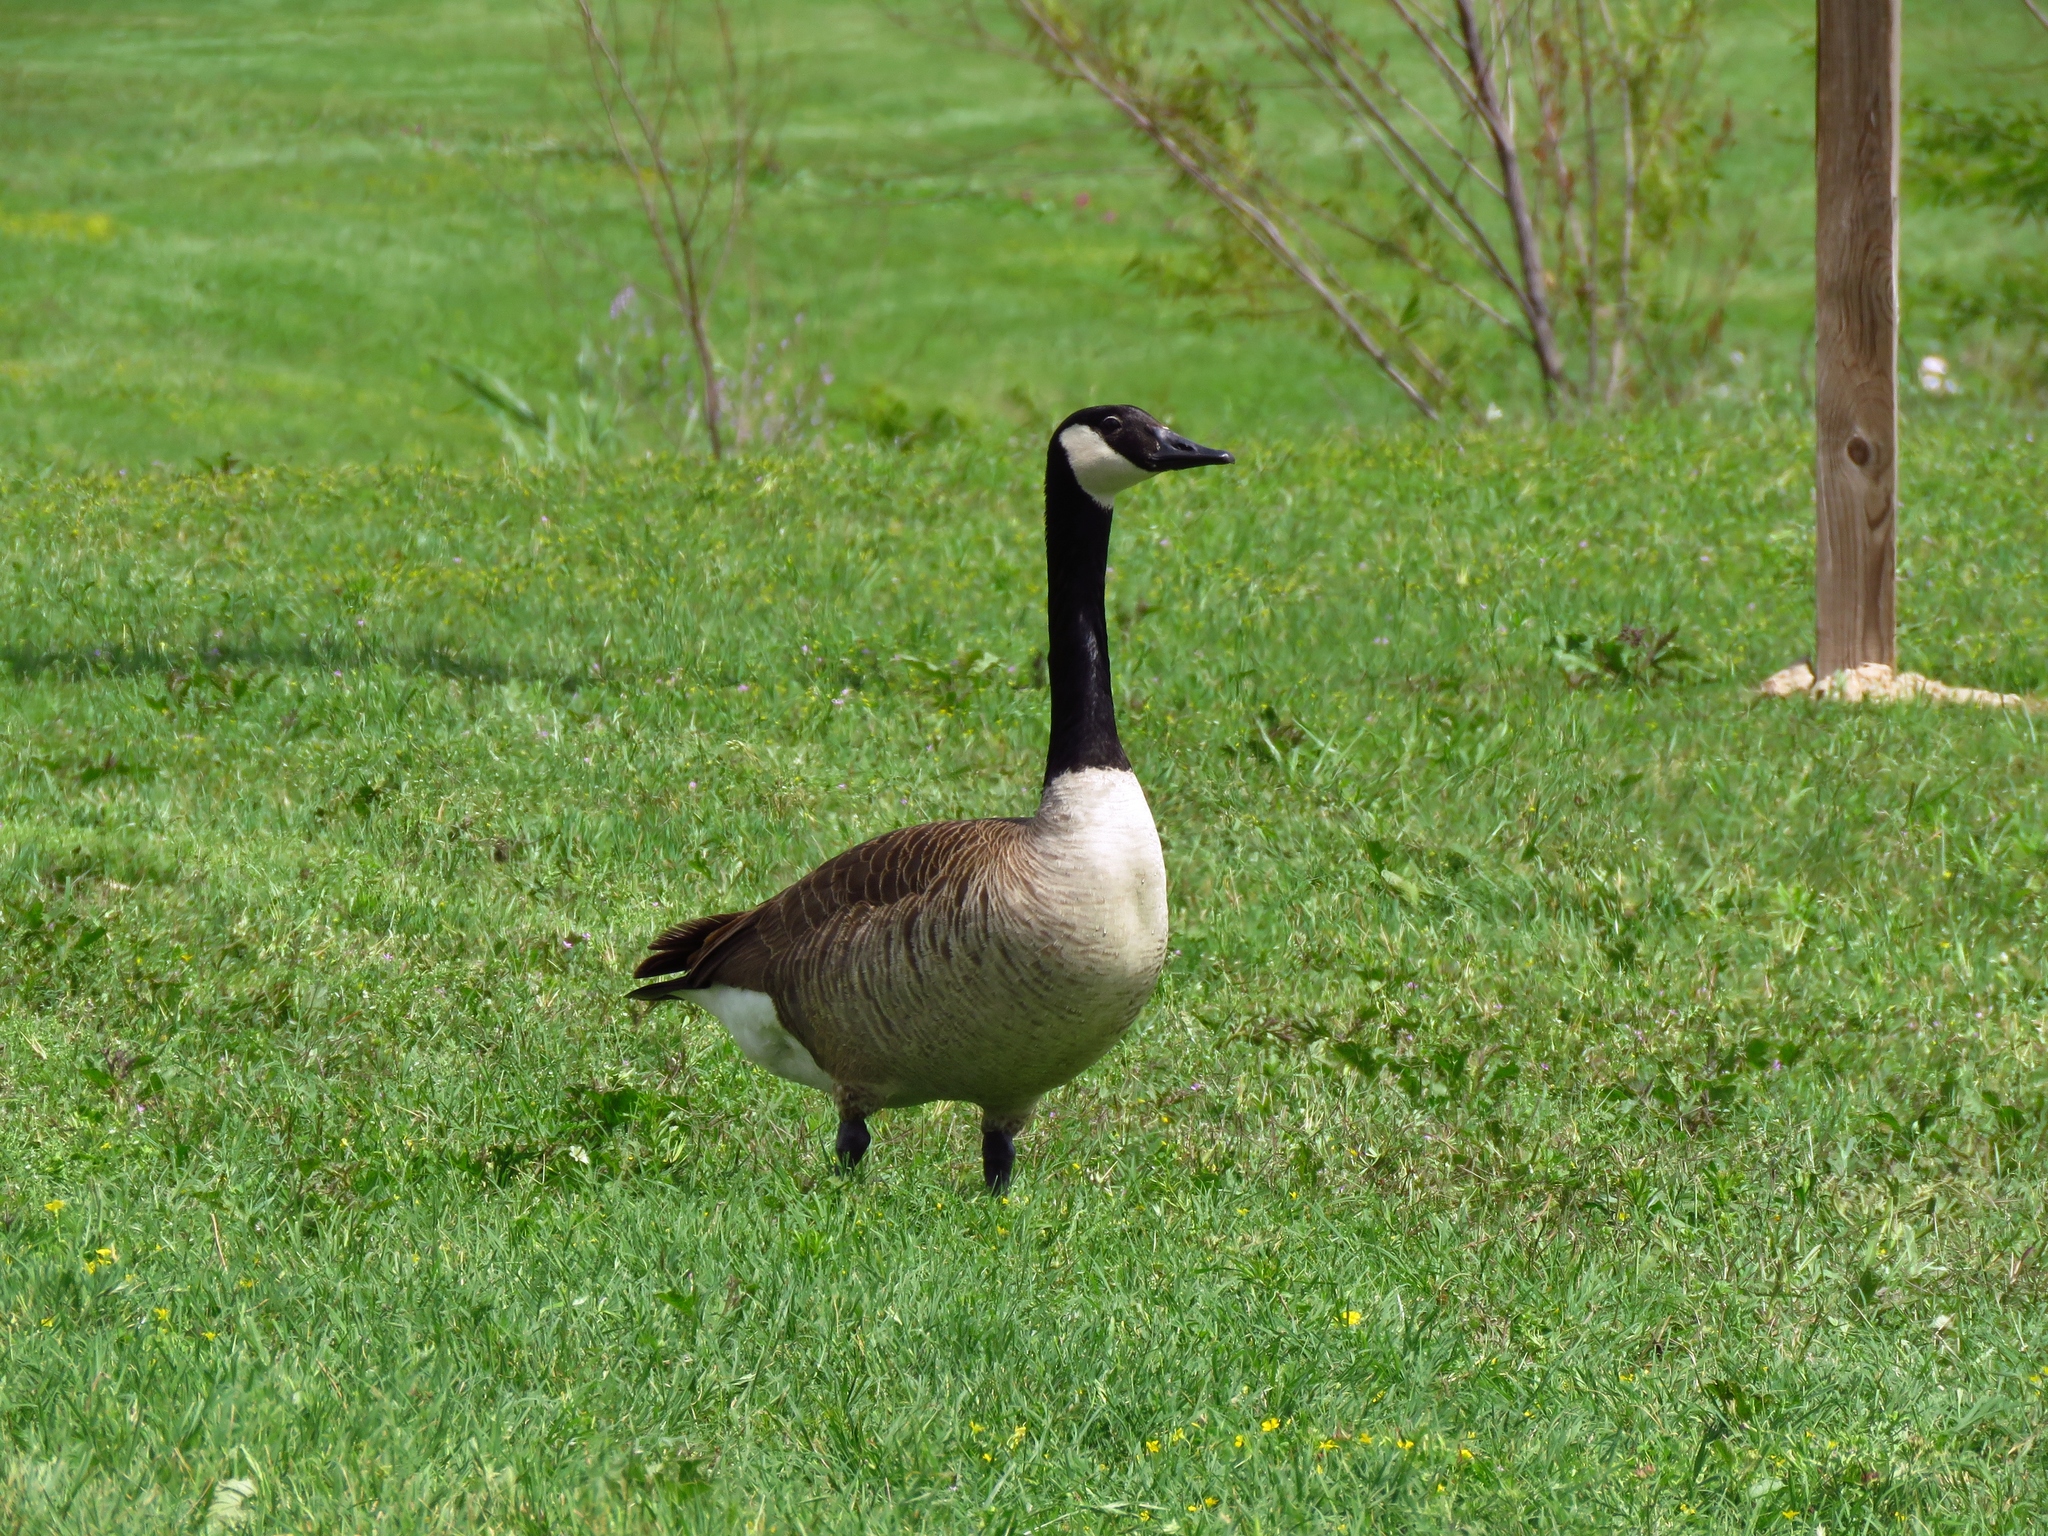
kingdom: Animalia
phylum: Chordata
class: Aves
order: Anseriformes
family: Anatidae
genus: Branta
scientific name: Branta canadensis
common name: Canada goose
